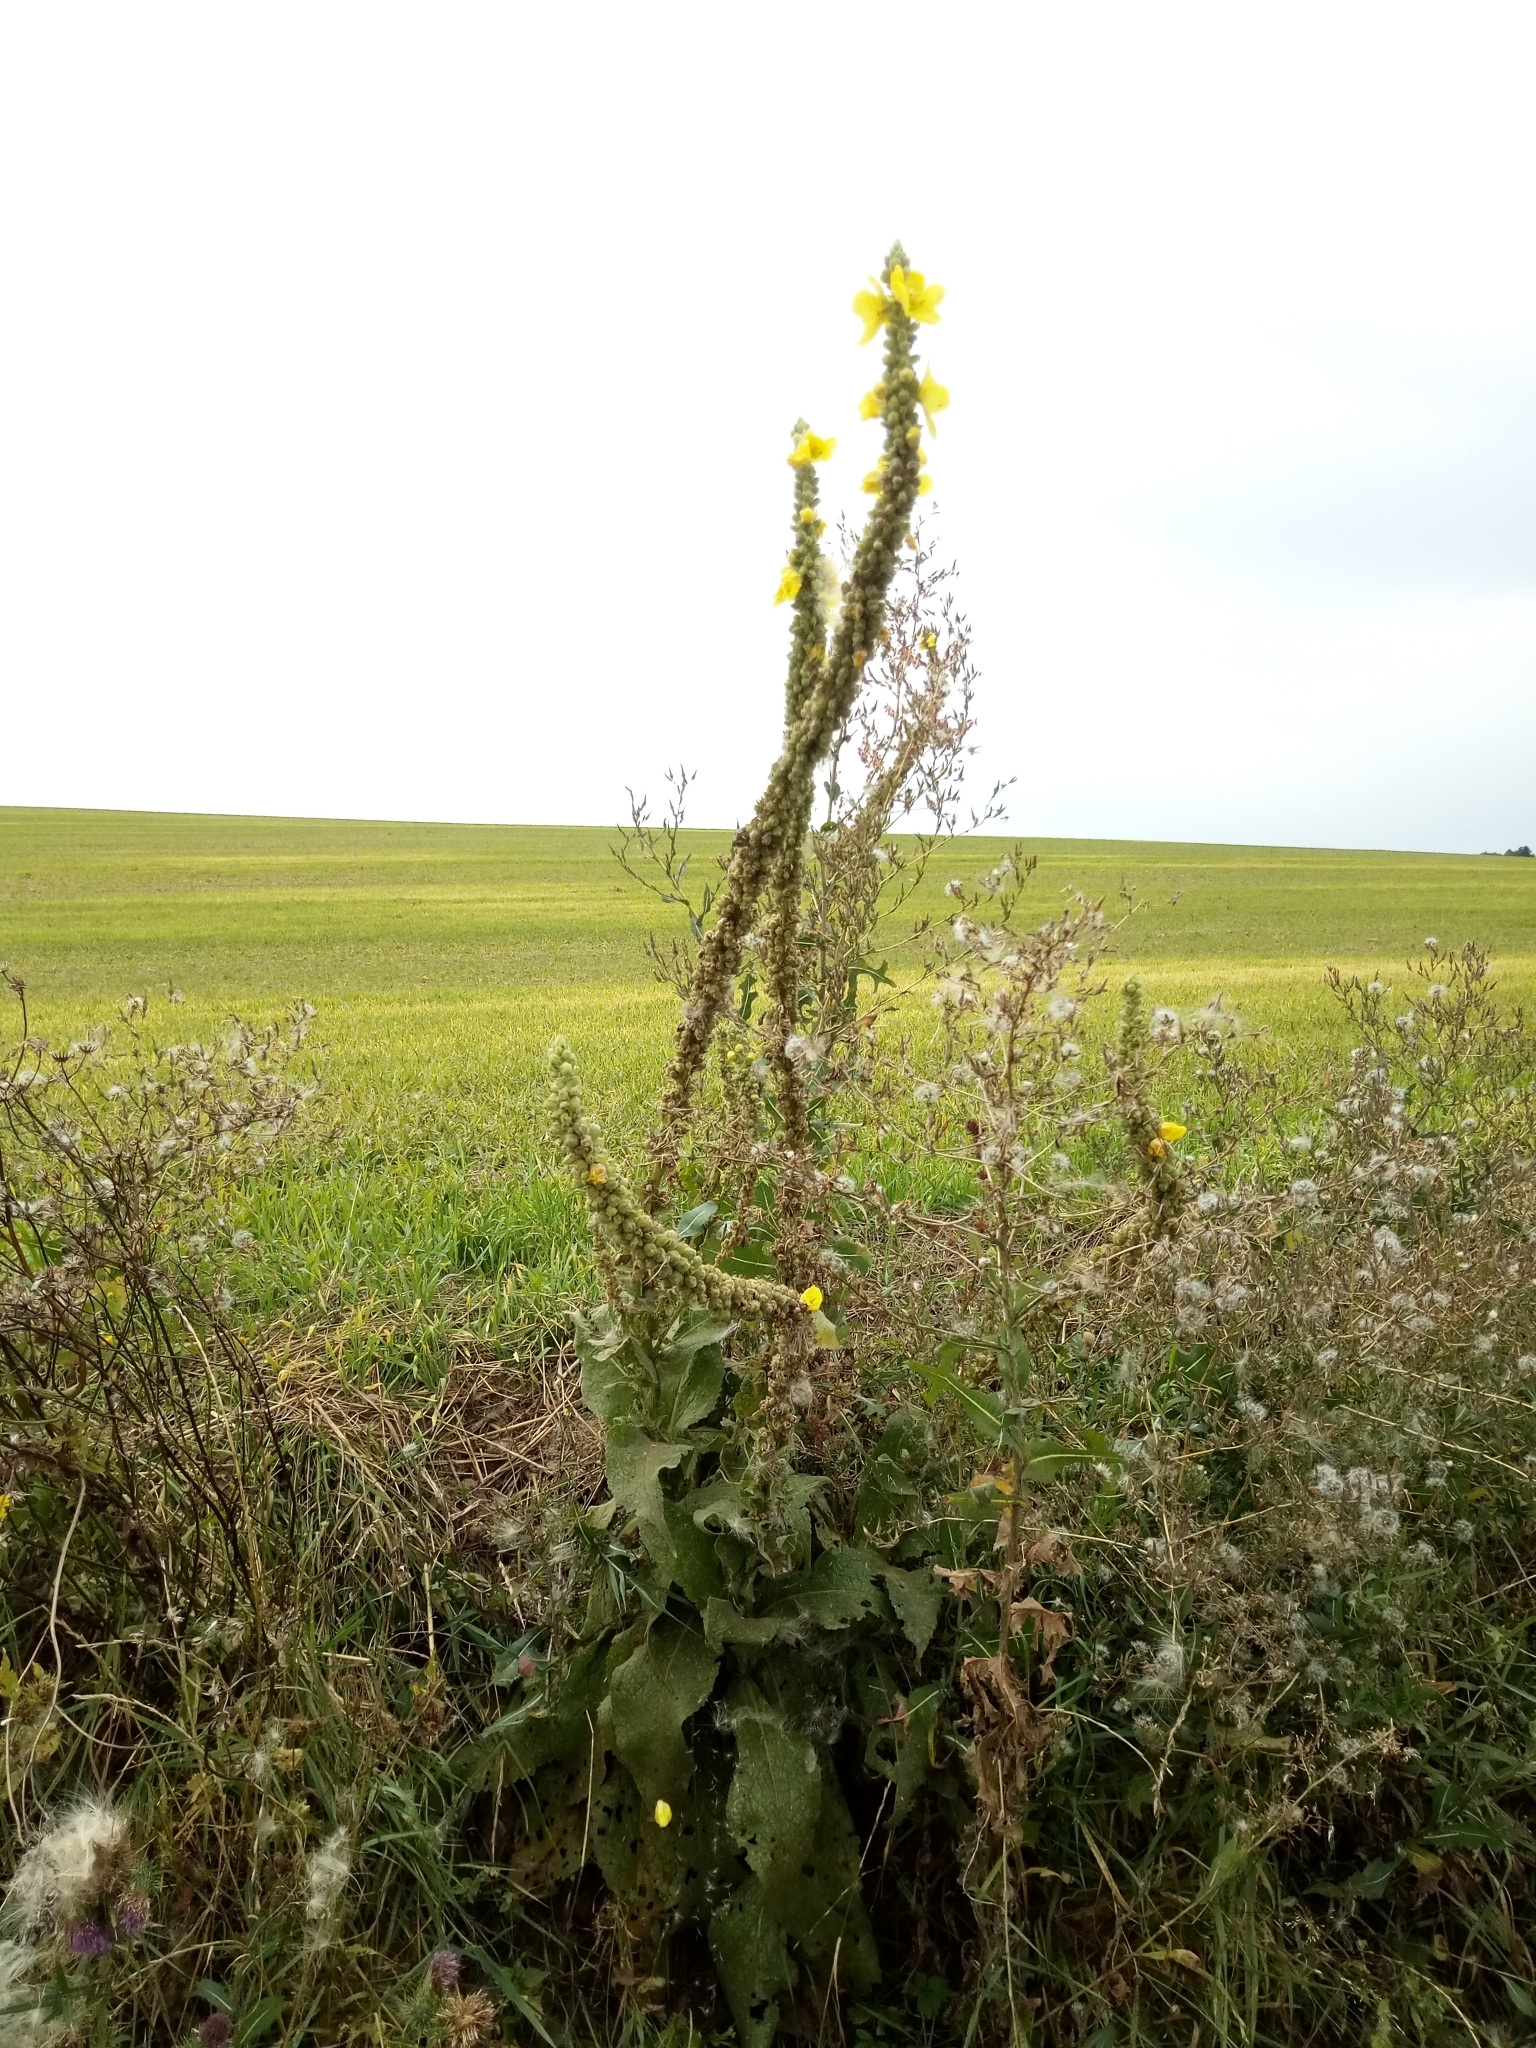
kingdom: Plantae
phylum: Tracheophyta
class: Magnoliopsida
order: Lamiales
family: Scrophulariaceae
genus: Verbascum
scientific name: Verbascum densiflorum
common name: Dense-flowered mullein
